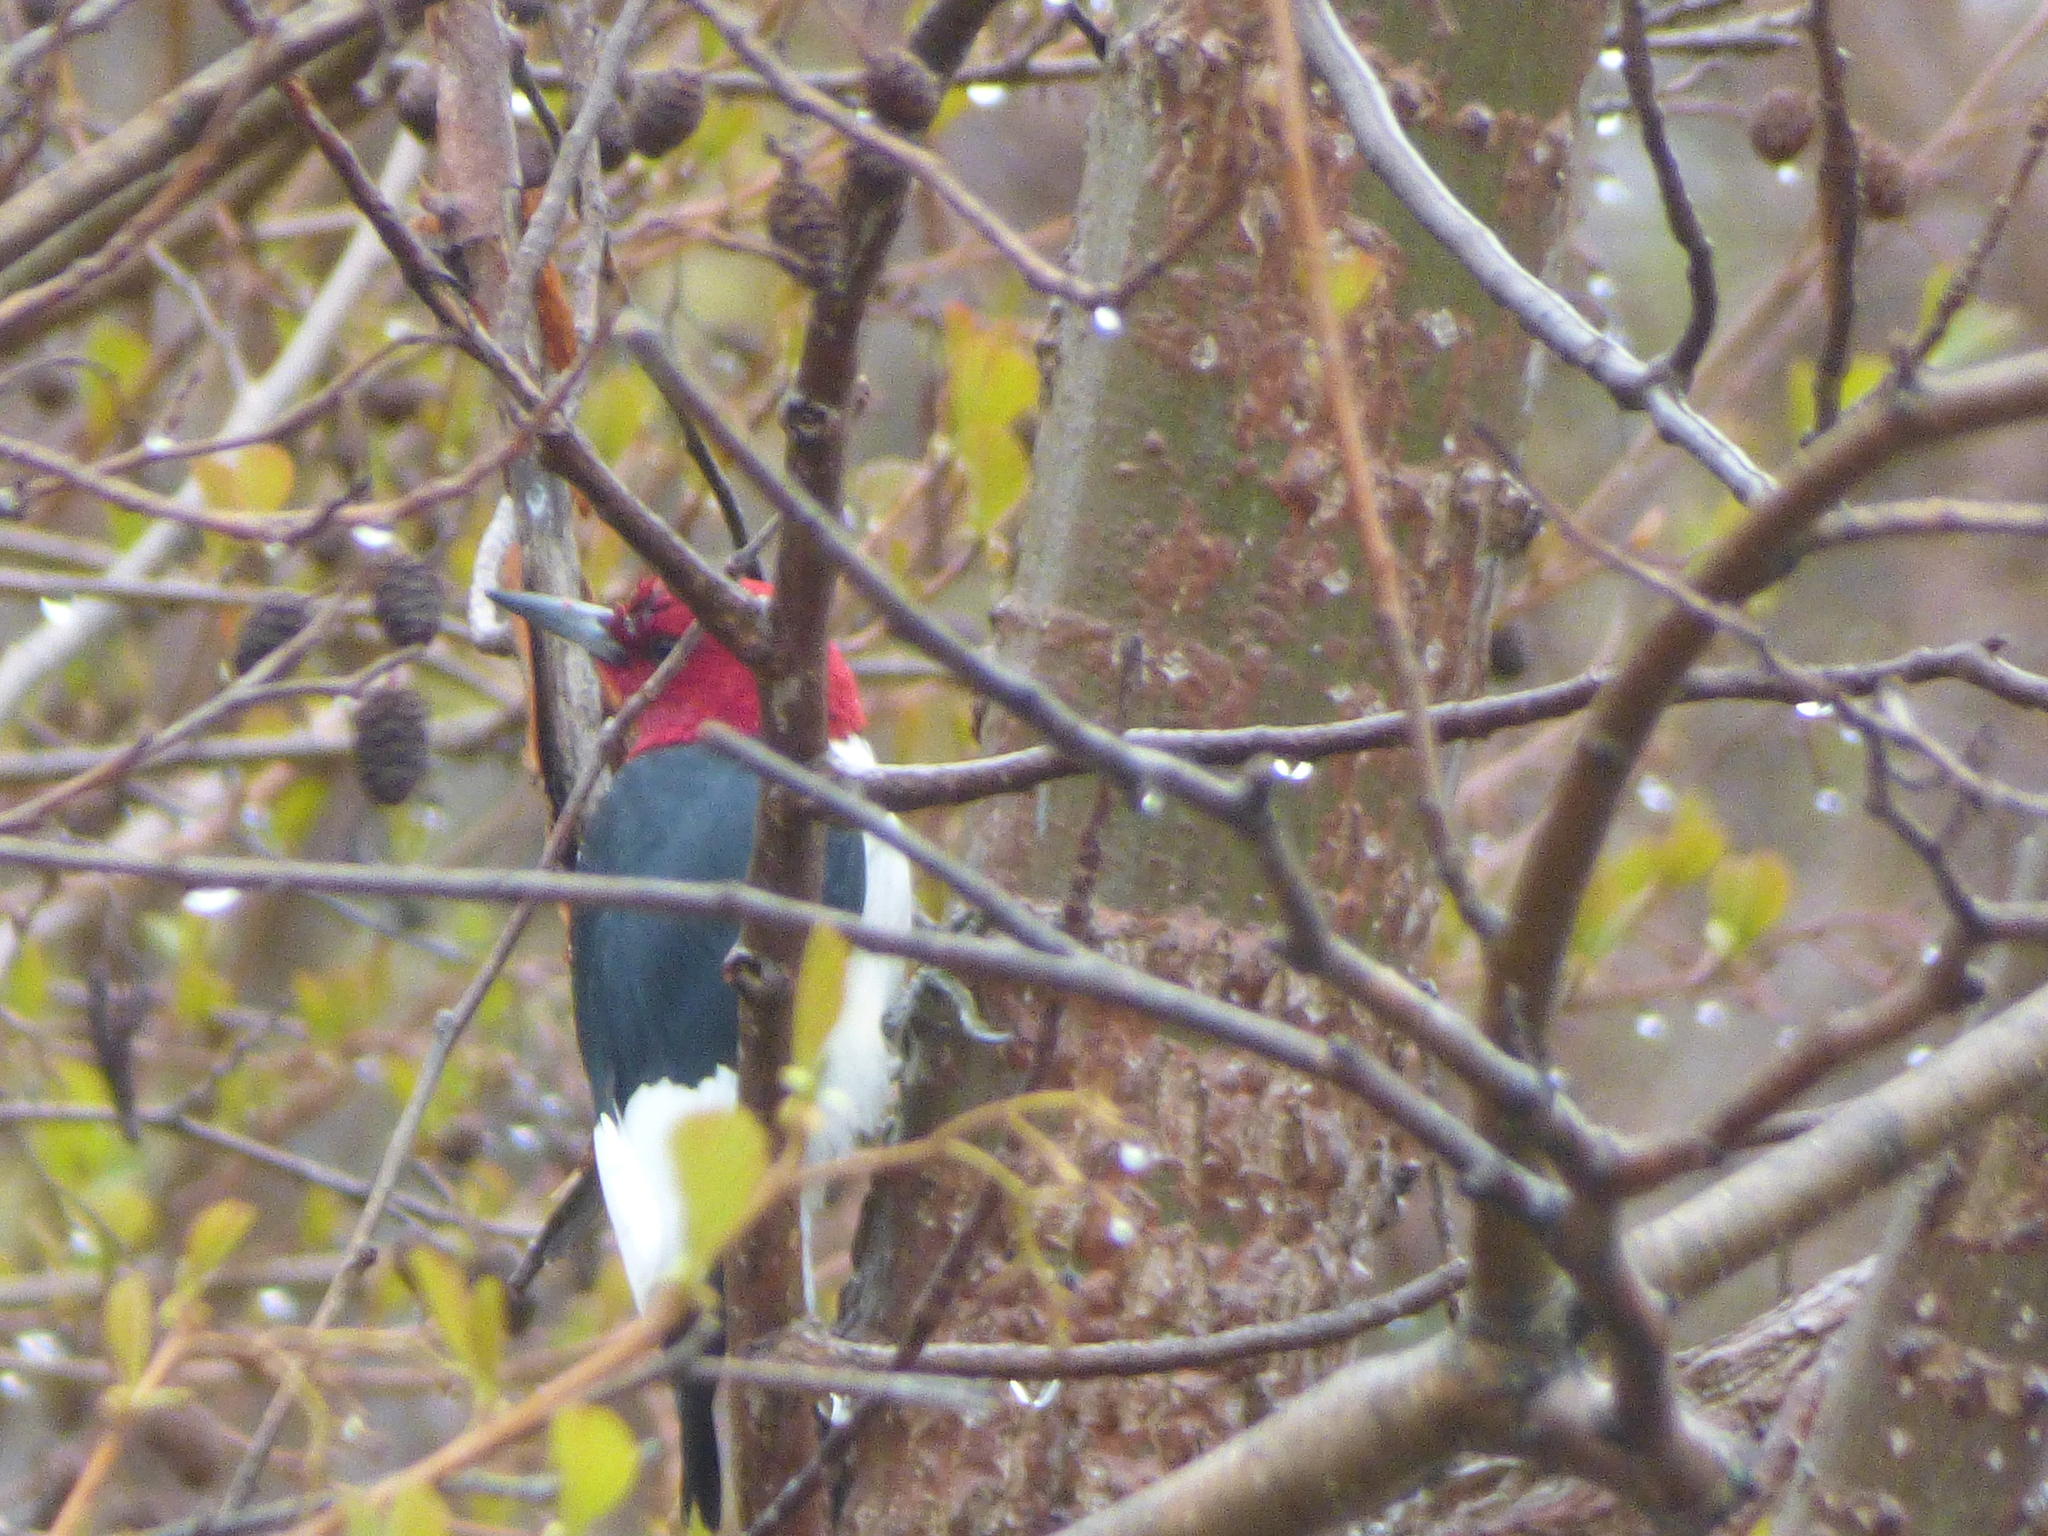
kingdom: Animalia
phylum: Chordata
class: Aves
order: Piciformes
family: Picidae
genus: Melanerpes
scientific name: Melanerpes erythrocephalus
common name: Red-headed woodpecker
